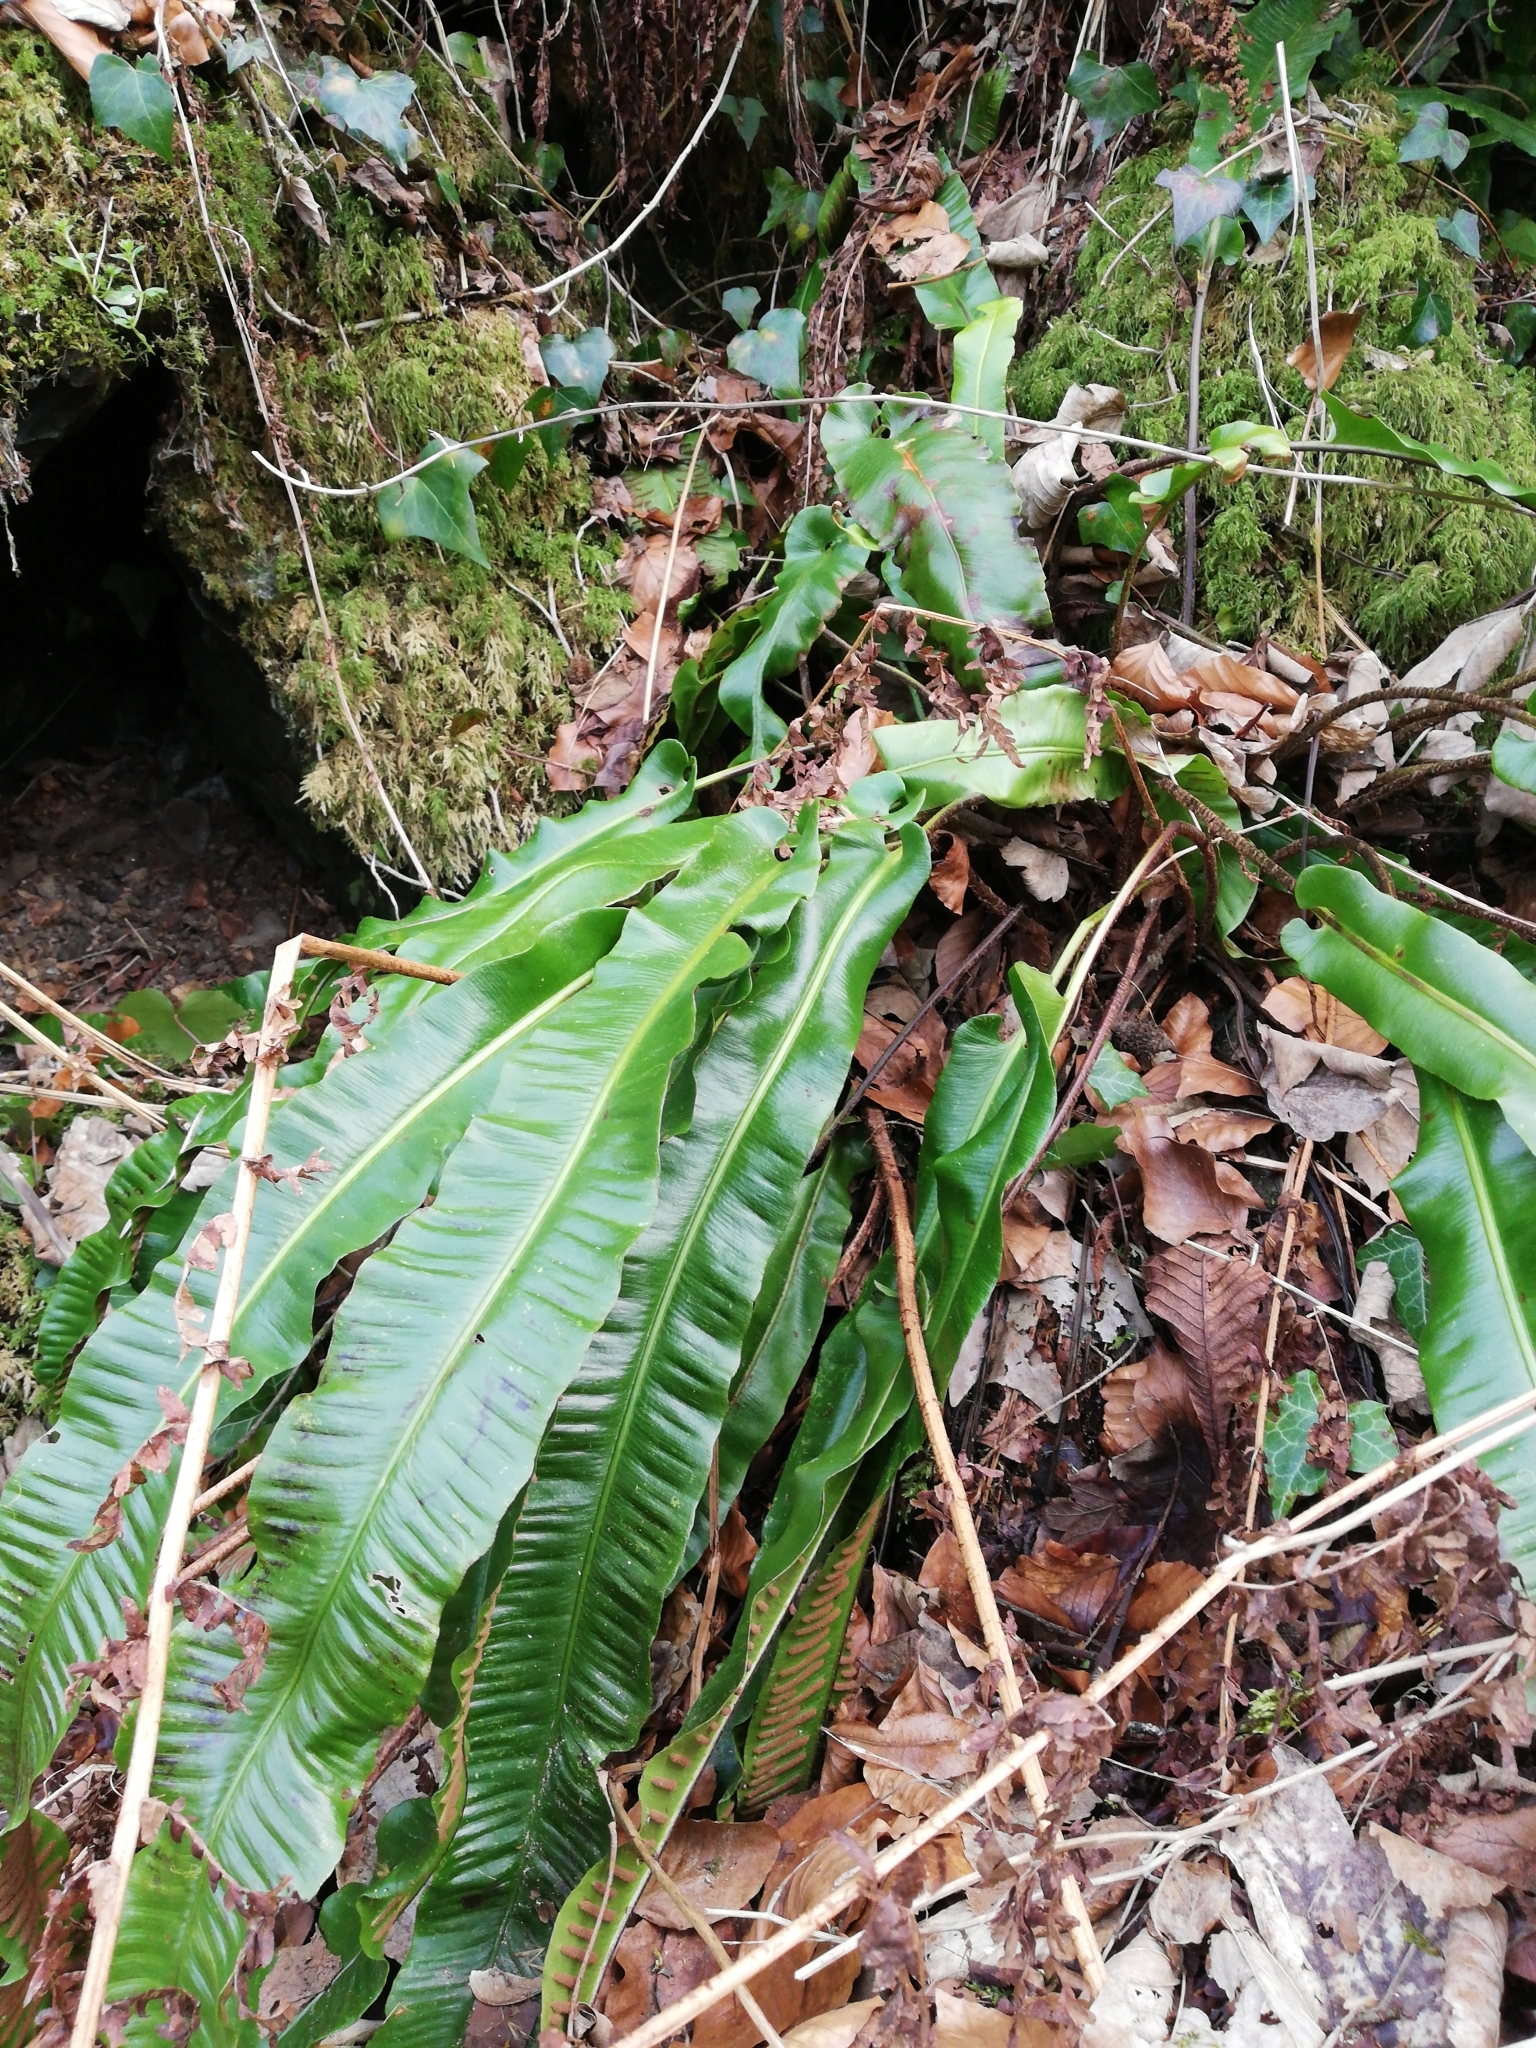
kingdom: Plantae
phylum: Tracheophyta
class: Polypodiopsida
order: Polypodiales
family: Aspleniaceae
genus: Asplenium
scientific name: Asplenium scolopendrium
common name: Hart's-tongue fern
